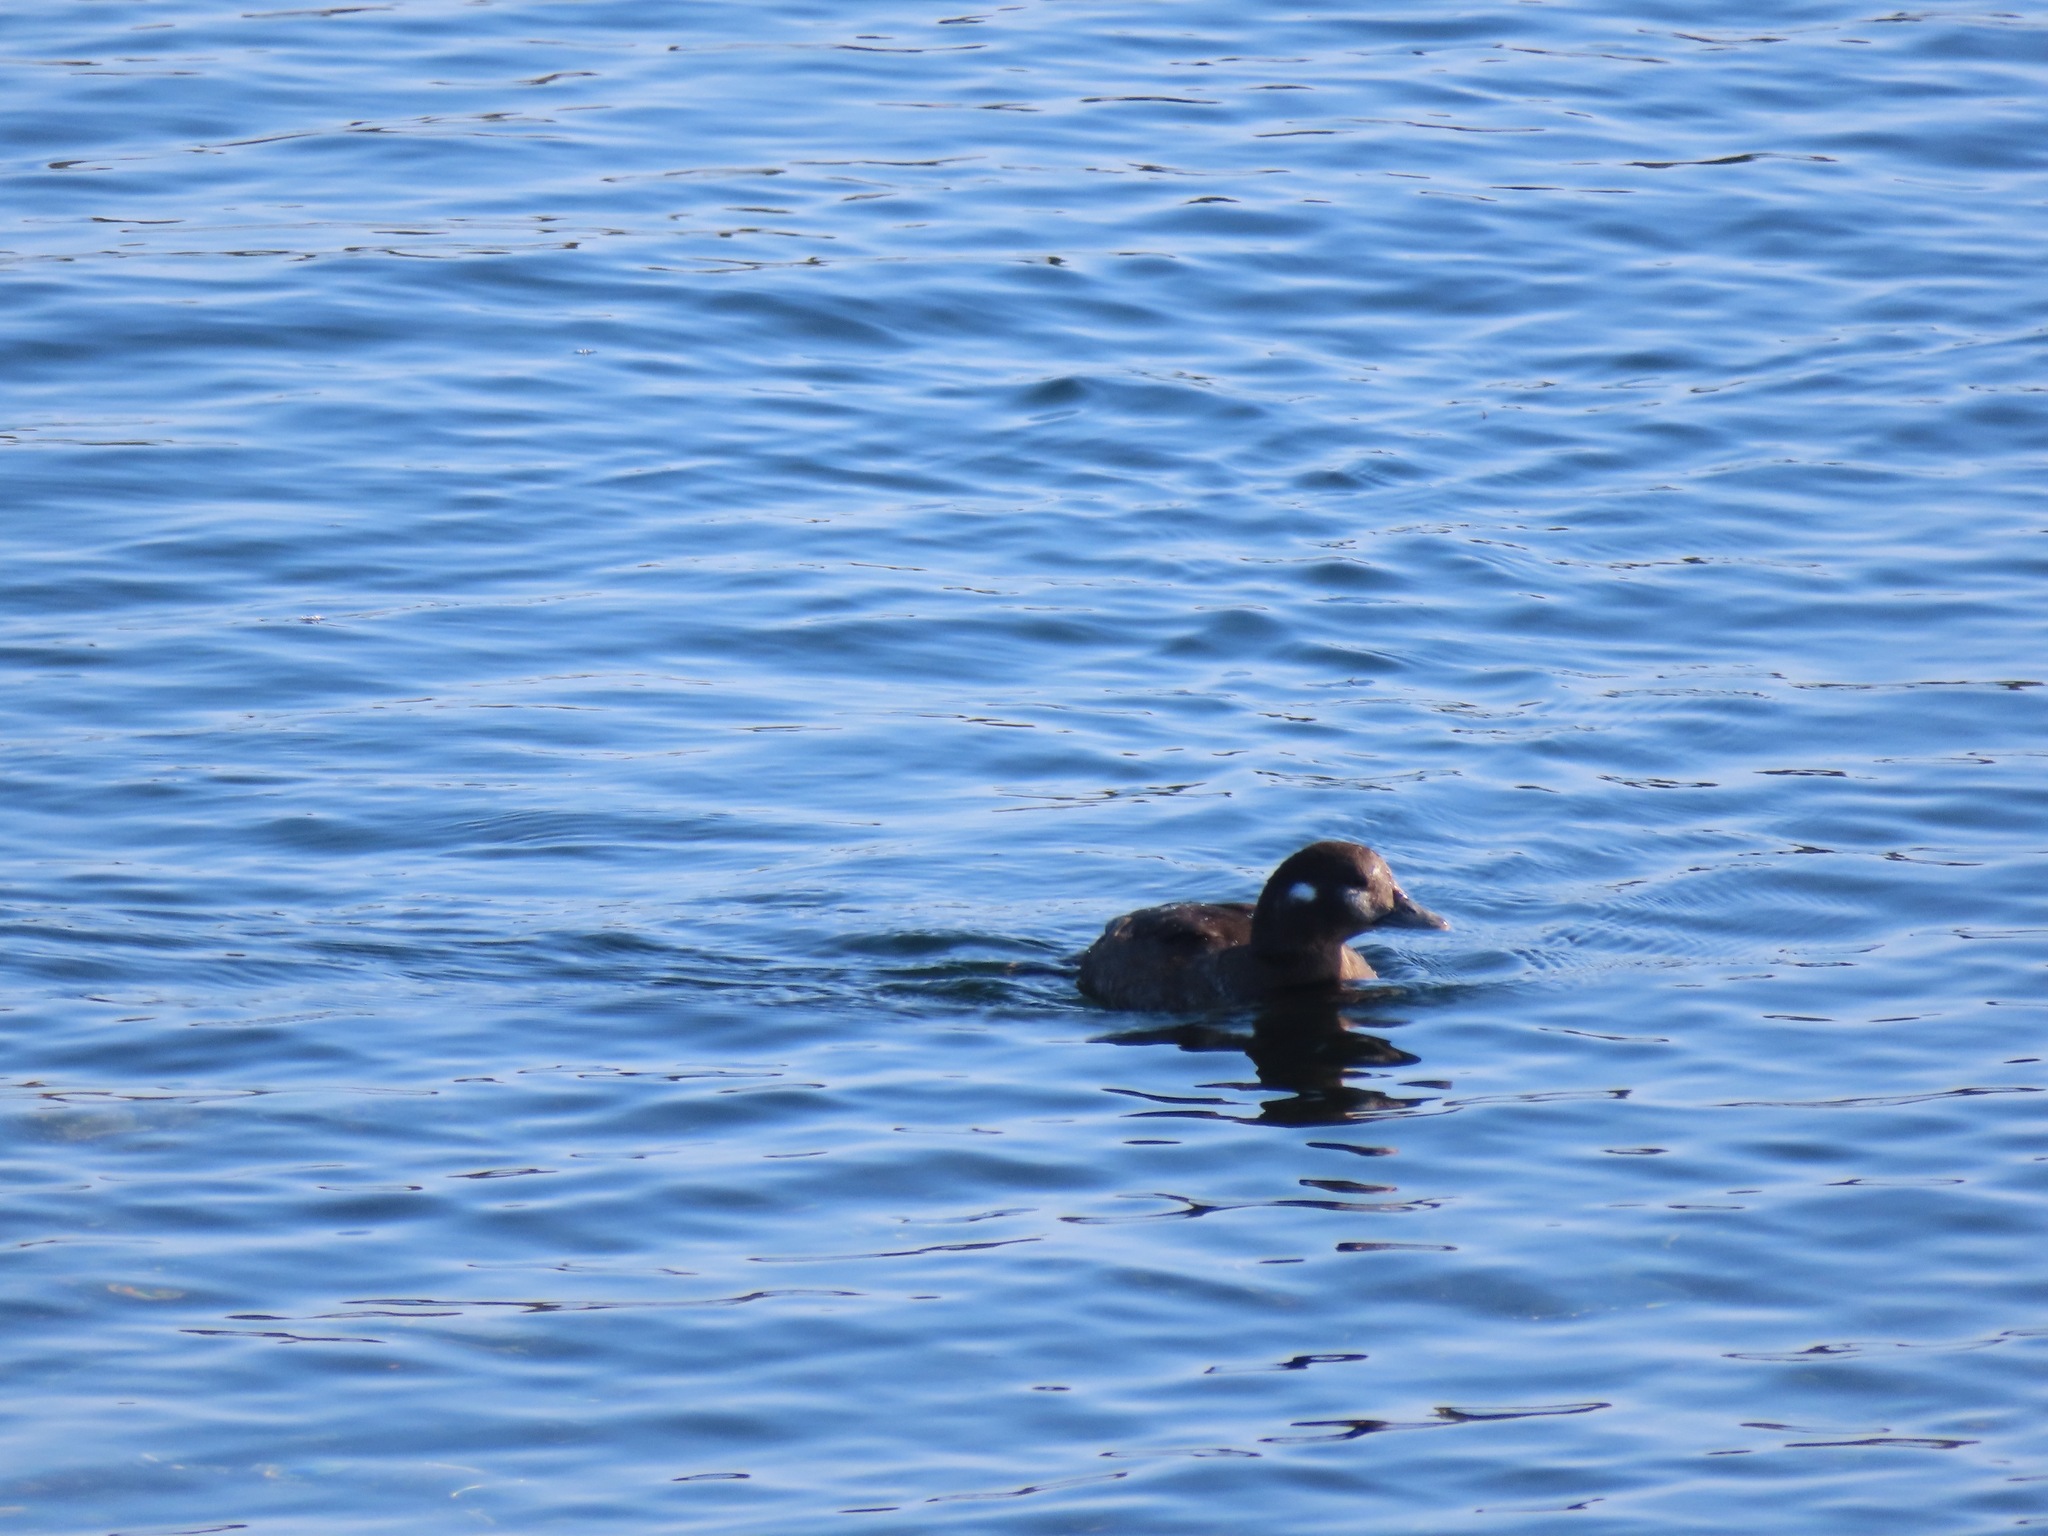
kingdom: Animalia
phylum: Chordata
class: Aves
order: Anseriformes
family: Anatidae
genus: Histrionicus
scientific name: Histrionicus histrionicus
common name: Harlequin duck
